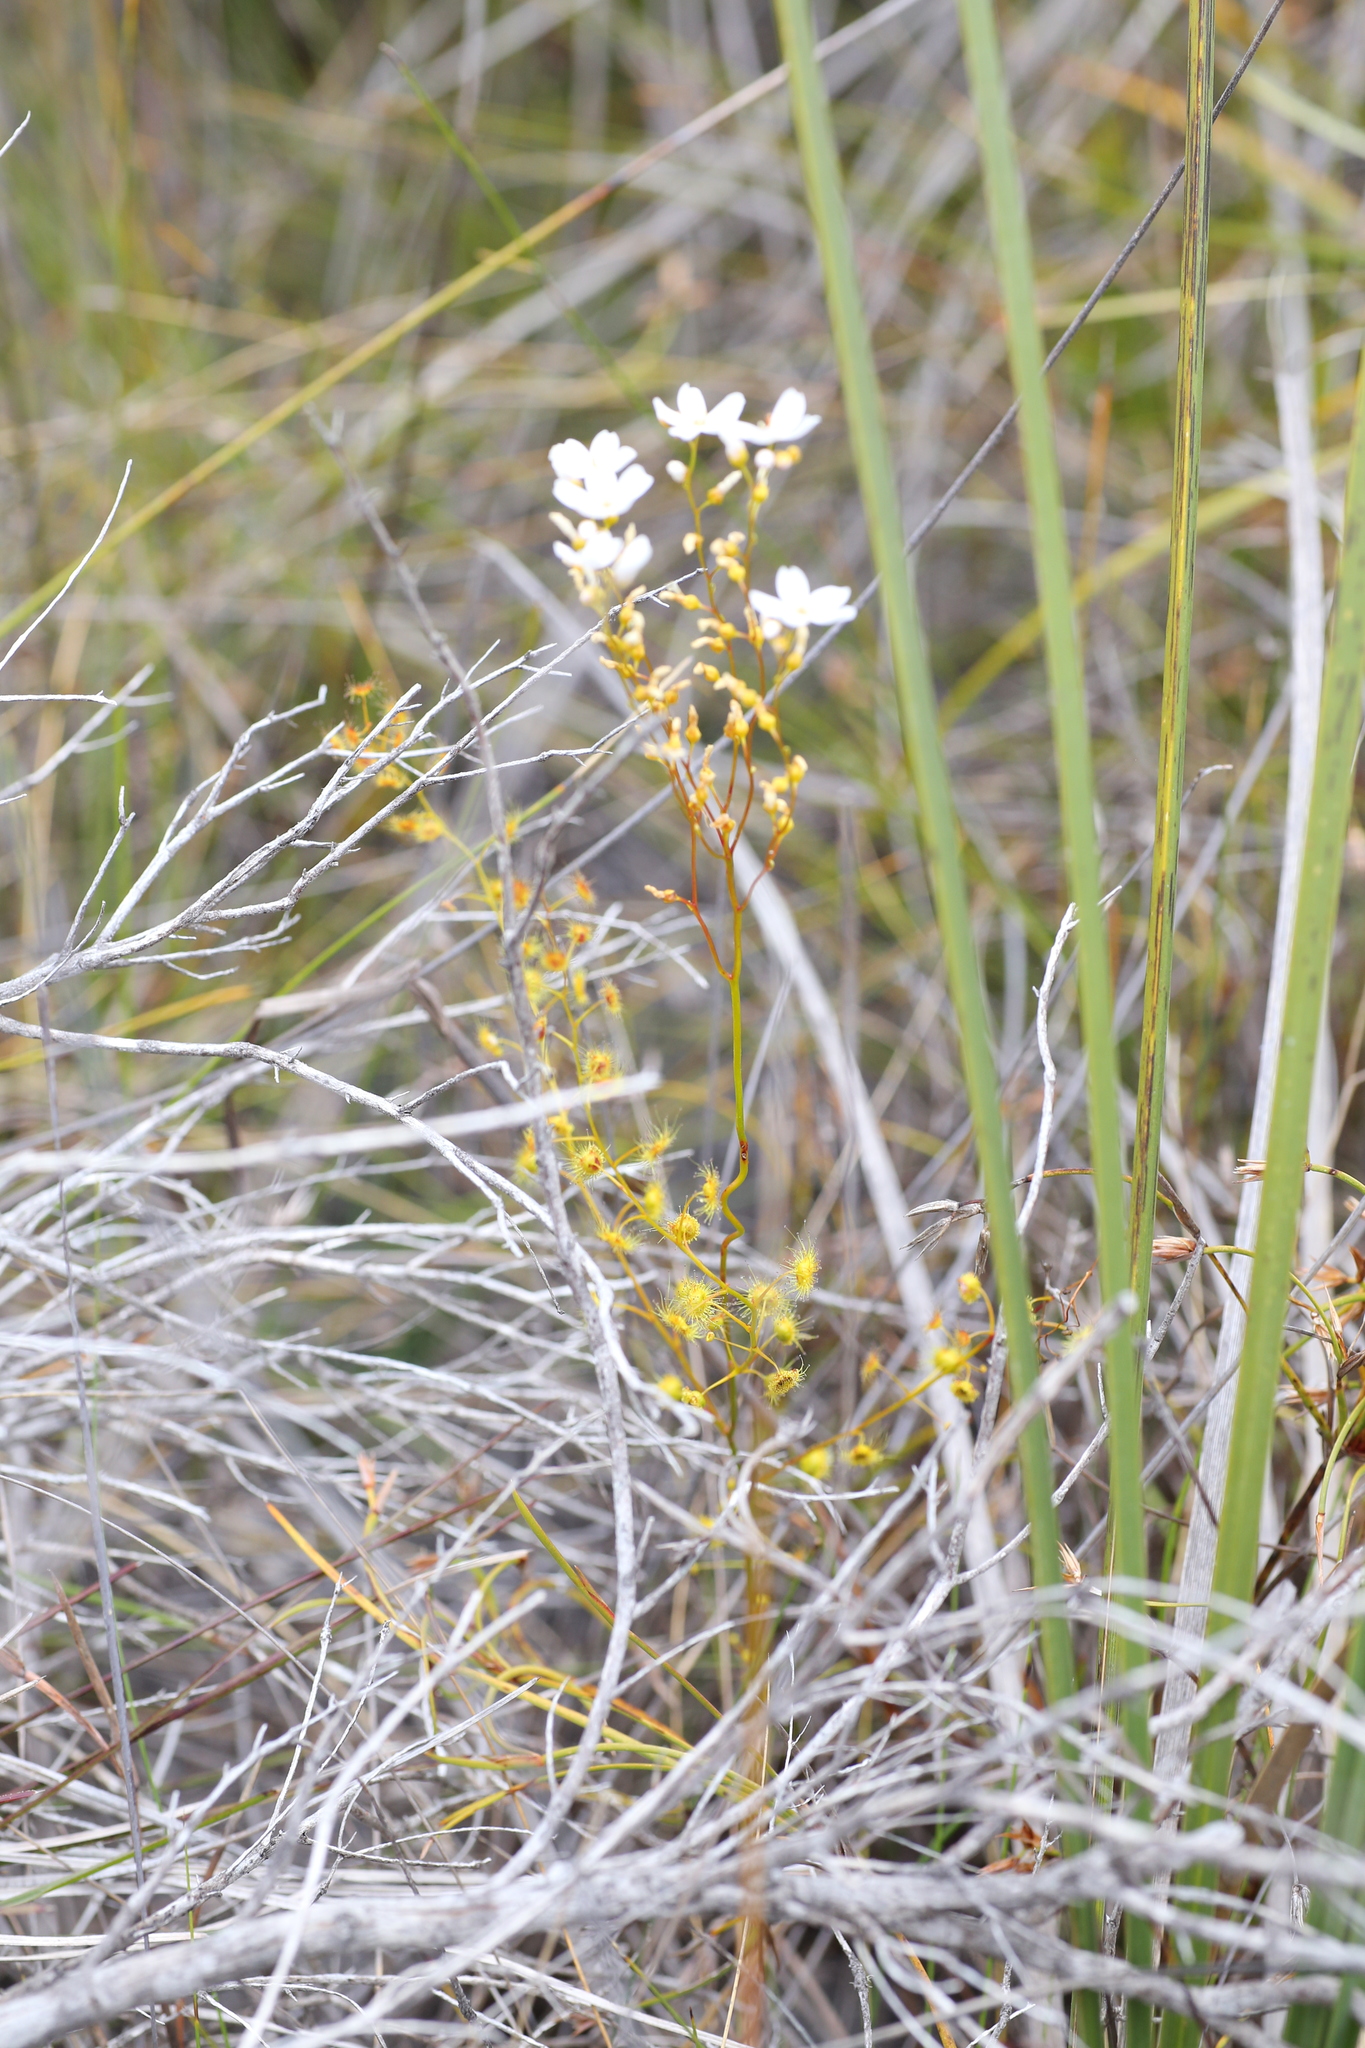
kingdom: Plantae
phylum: Tracheophyta
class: Magnoliopsida
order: Caryophyllales
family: Droseraceae
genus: Drosera
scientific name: Drosera myriantha
